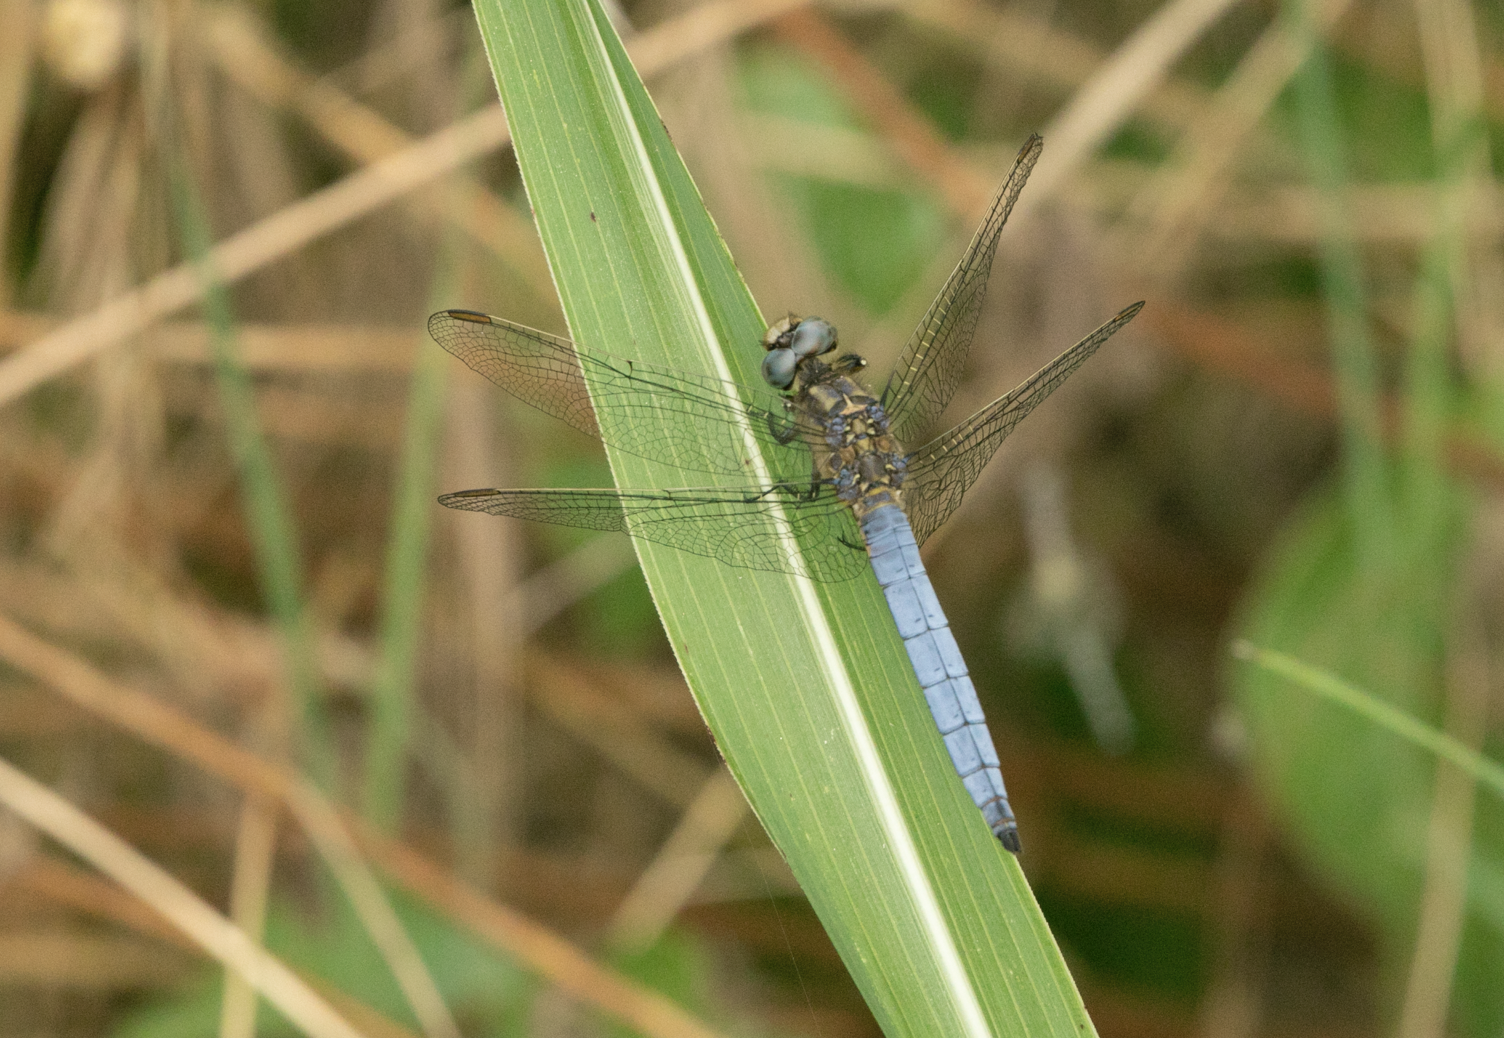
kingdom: Animalia
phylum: Arthropoda
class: Insecta
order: Odonata
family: Libellulidae
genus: Orthetrum
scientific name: Orthetrum coerulescens
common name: Keeled skimmer
